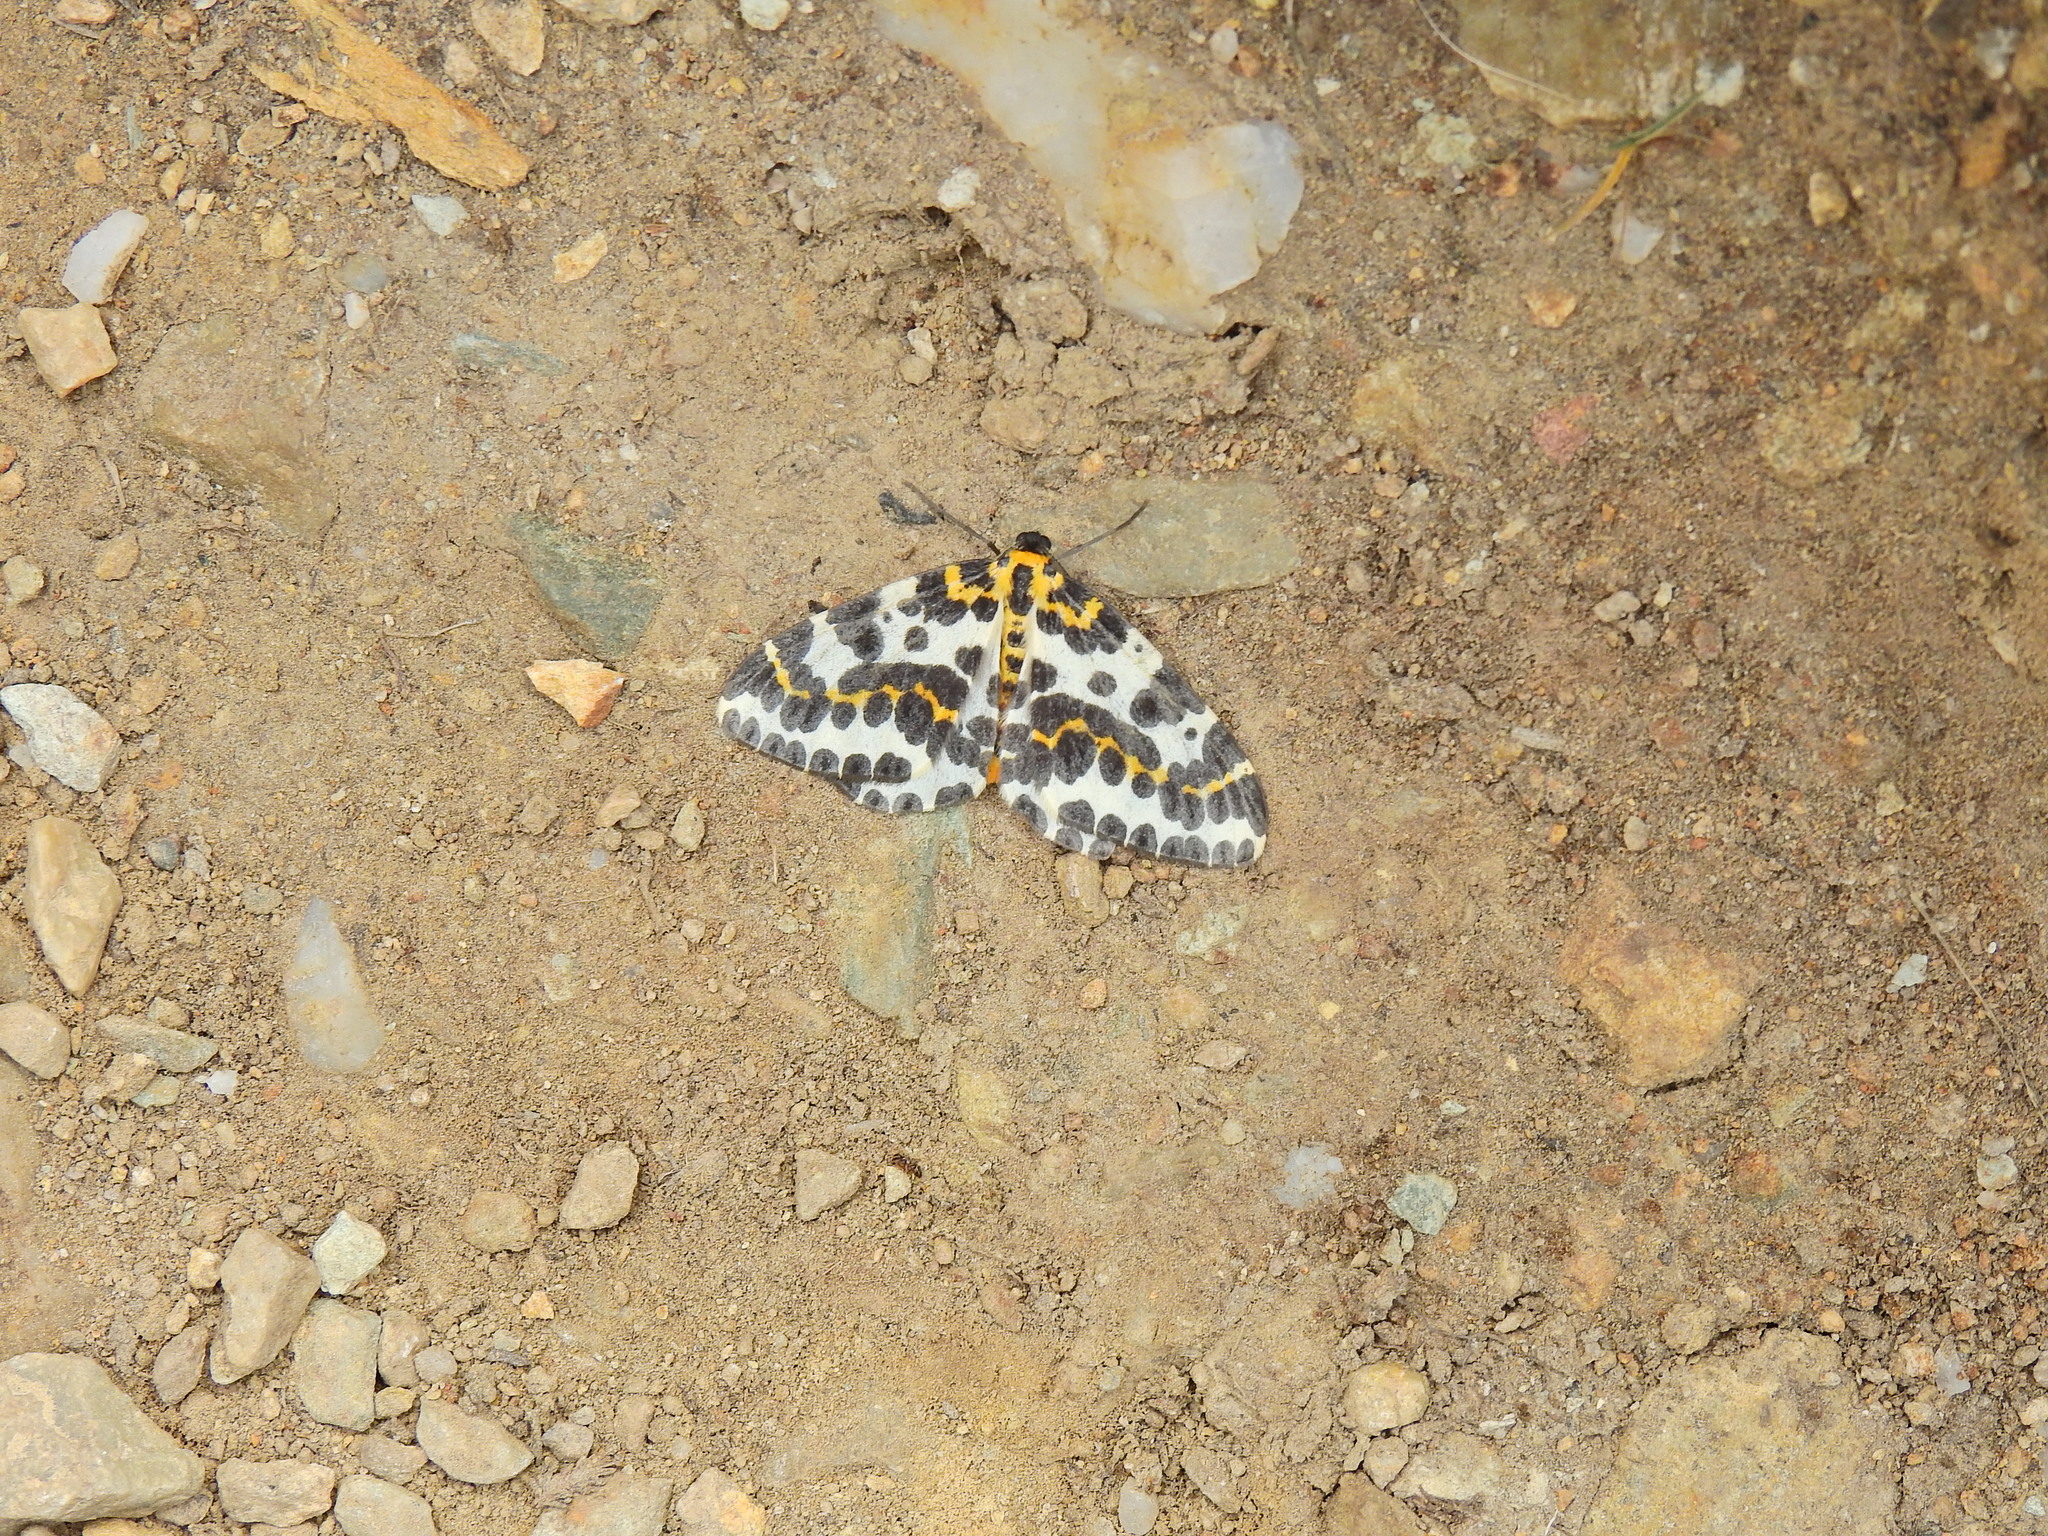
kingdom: Animalia
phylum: Arthropoda
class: Insecta
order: Lepidoptera
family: Geometridae
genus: Abraxas
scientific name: Abraxas grossulariata
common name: Magpie
